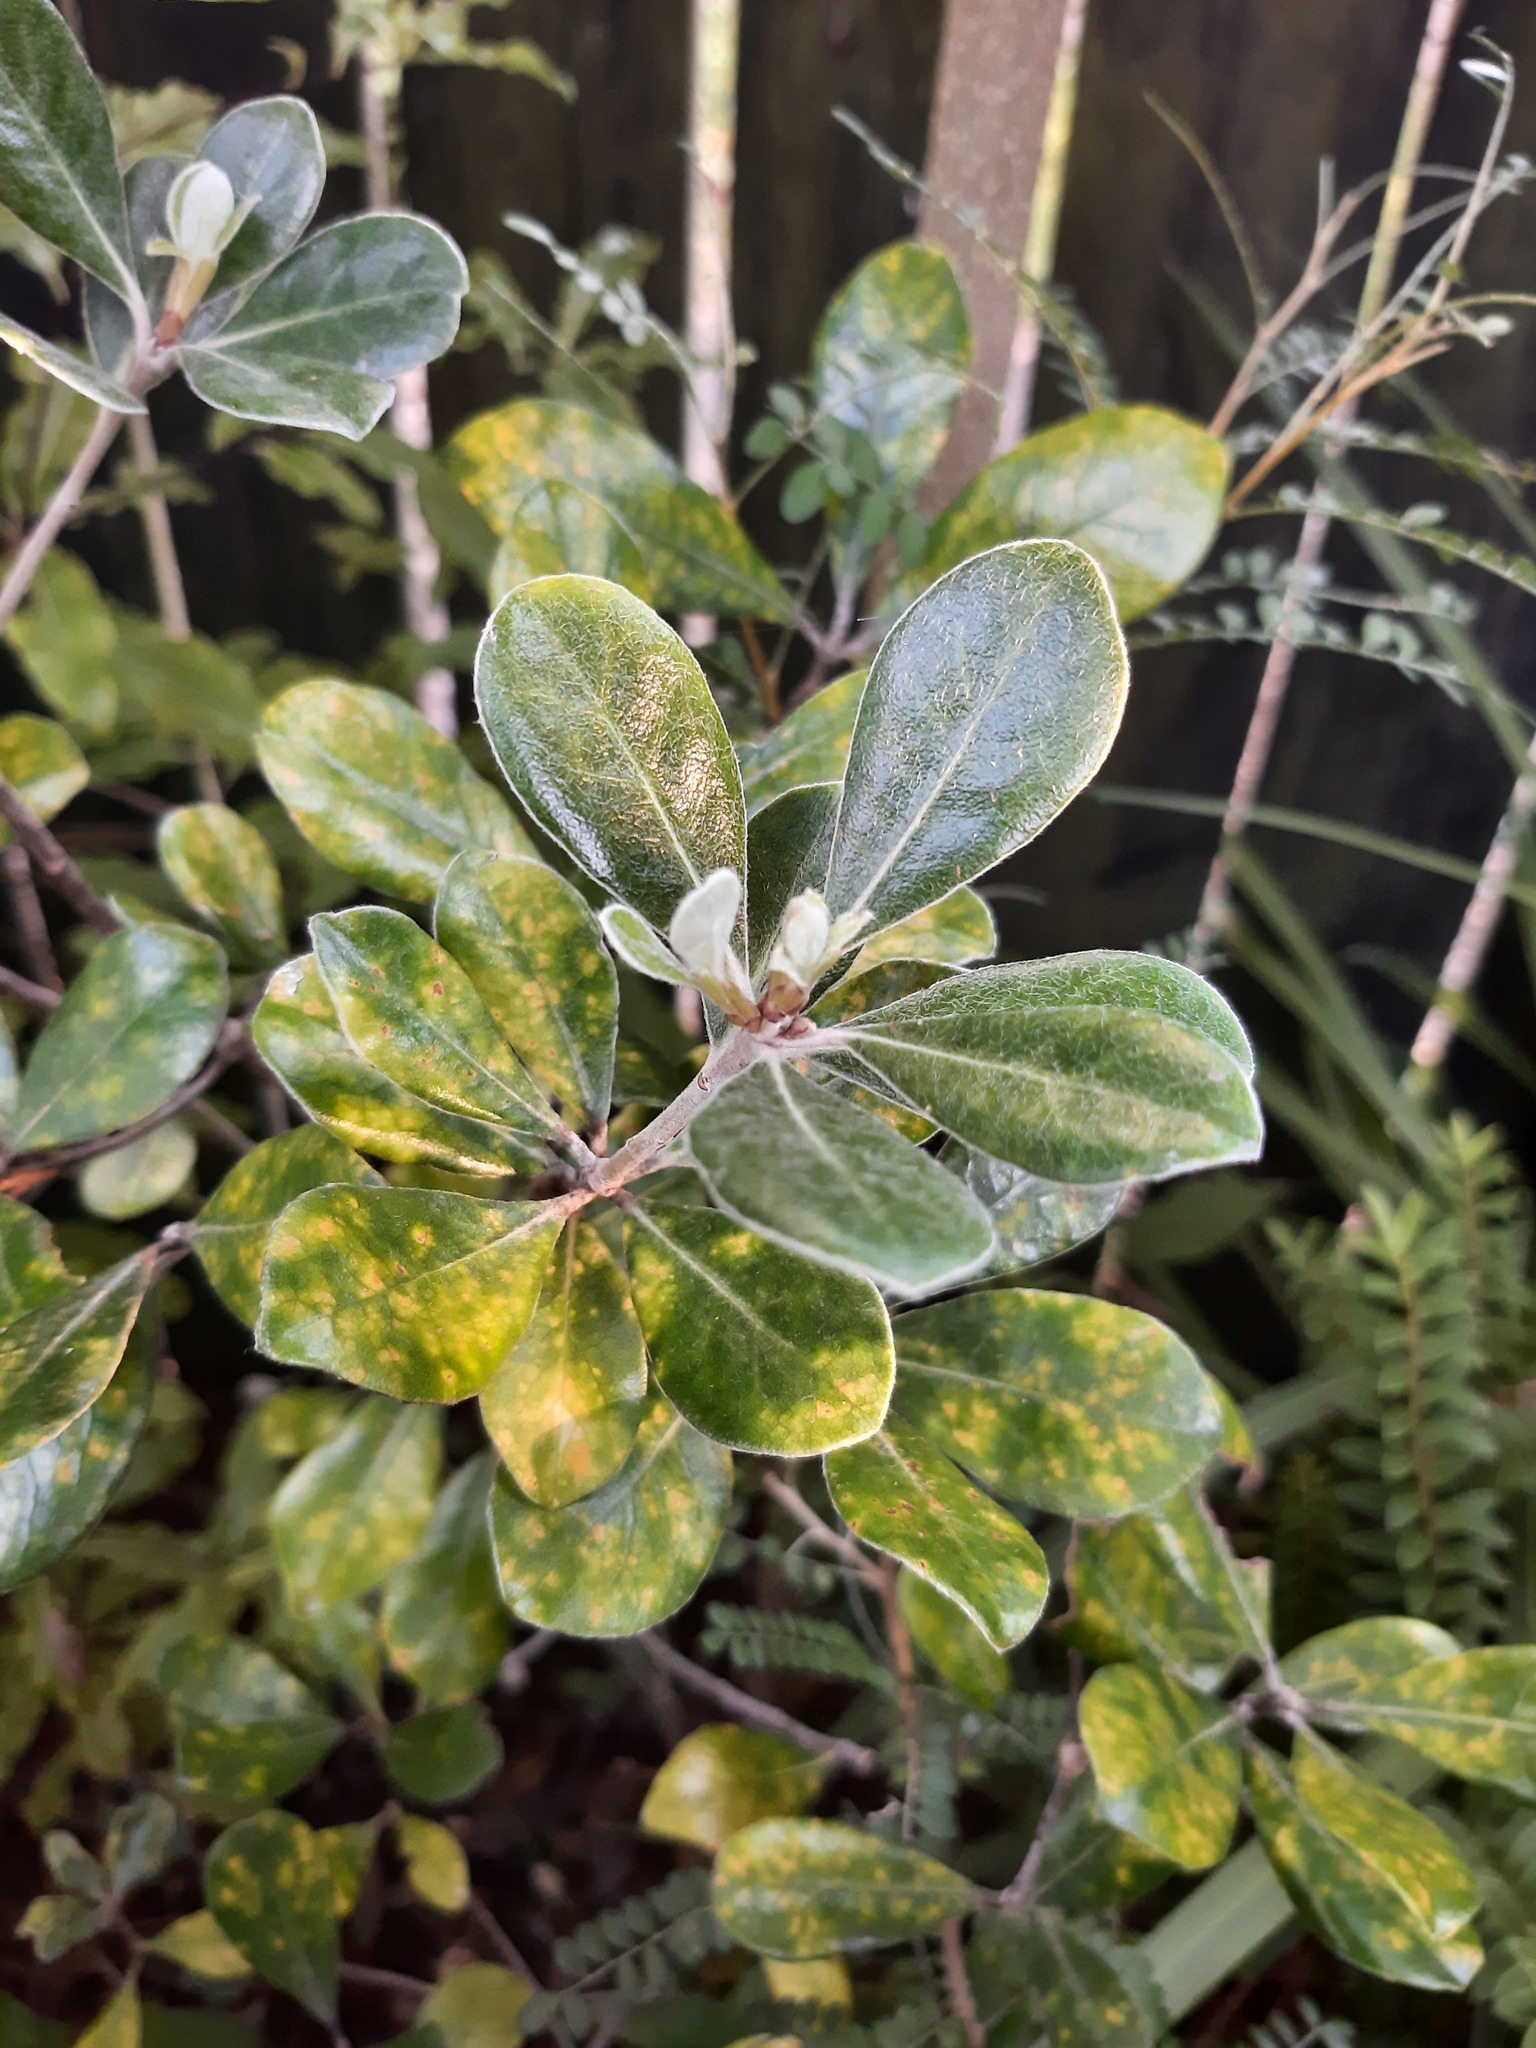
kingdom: Plantae
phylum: Tracheophyta
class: Magnoliopsida
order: Apiales
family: Pittosporaceae
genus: Pittosporum
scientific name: Pittosporum crassifolium
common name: Karo
